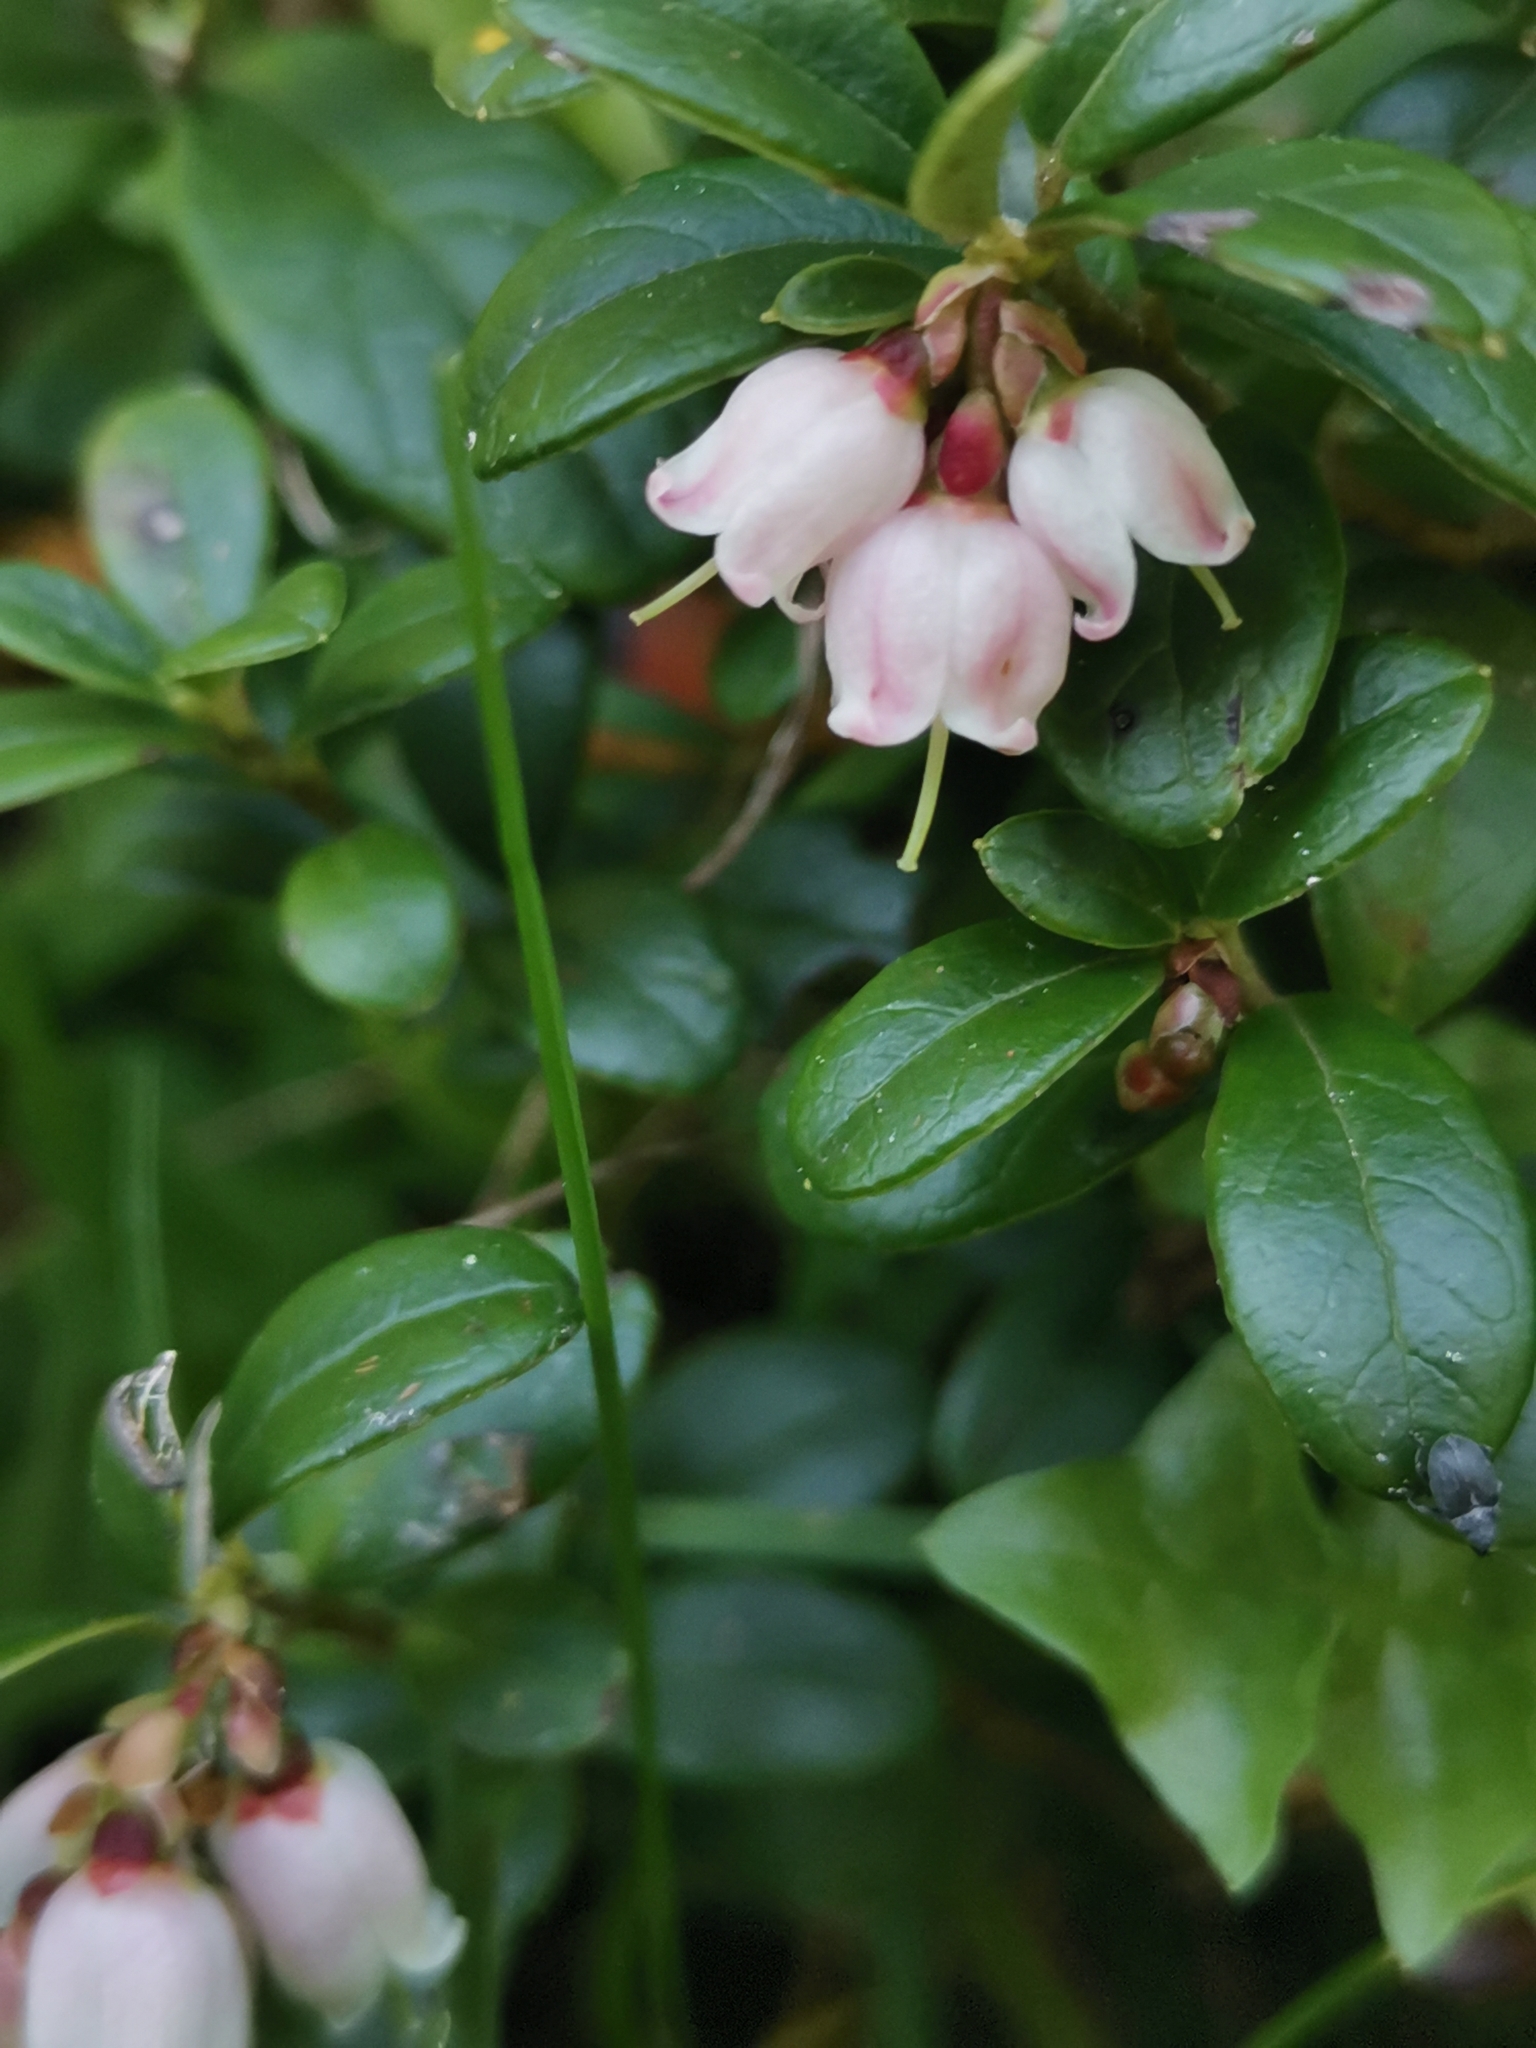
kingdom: Plantae
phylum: Tracheophyta
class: Magnoliopsida
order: Ericales
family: Ericaceae
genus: Vaccinium
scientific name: Vaccinium vitis-idaea
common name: Cowberry
